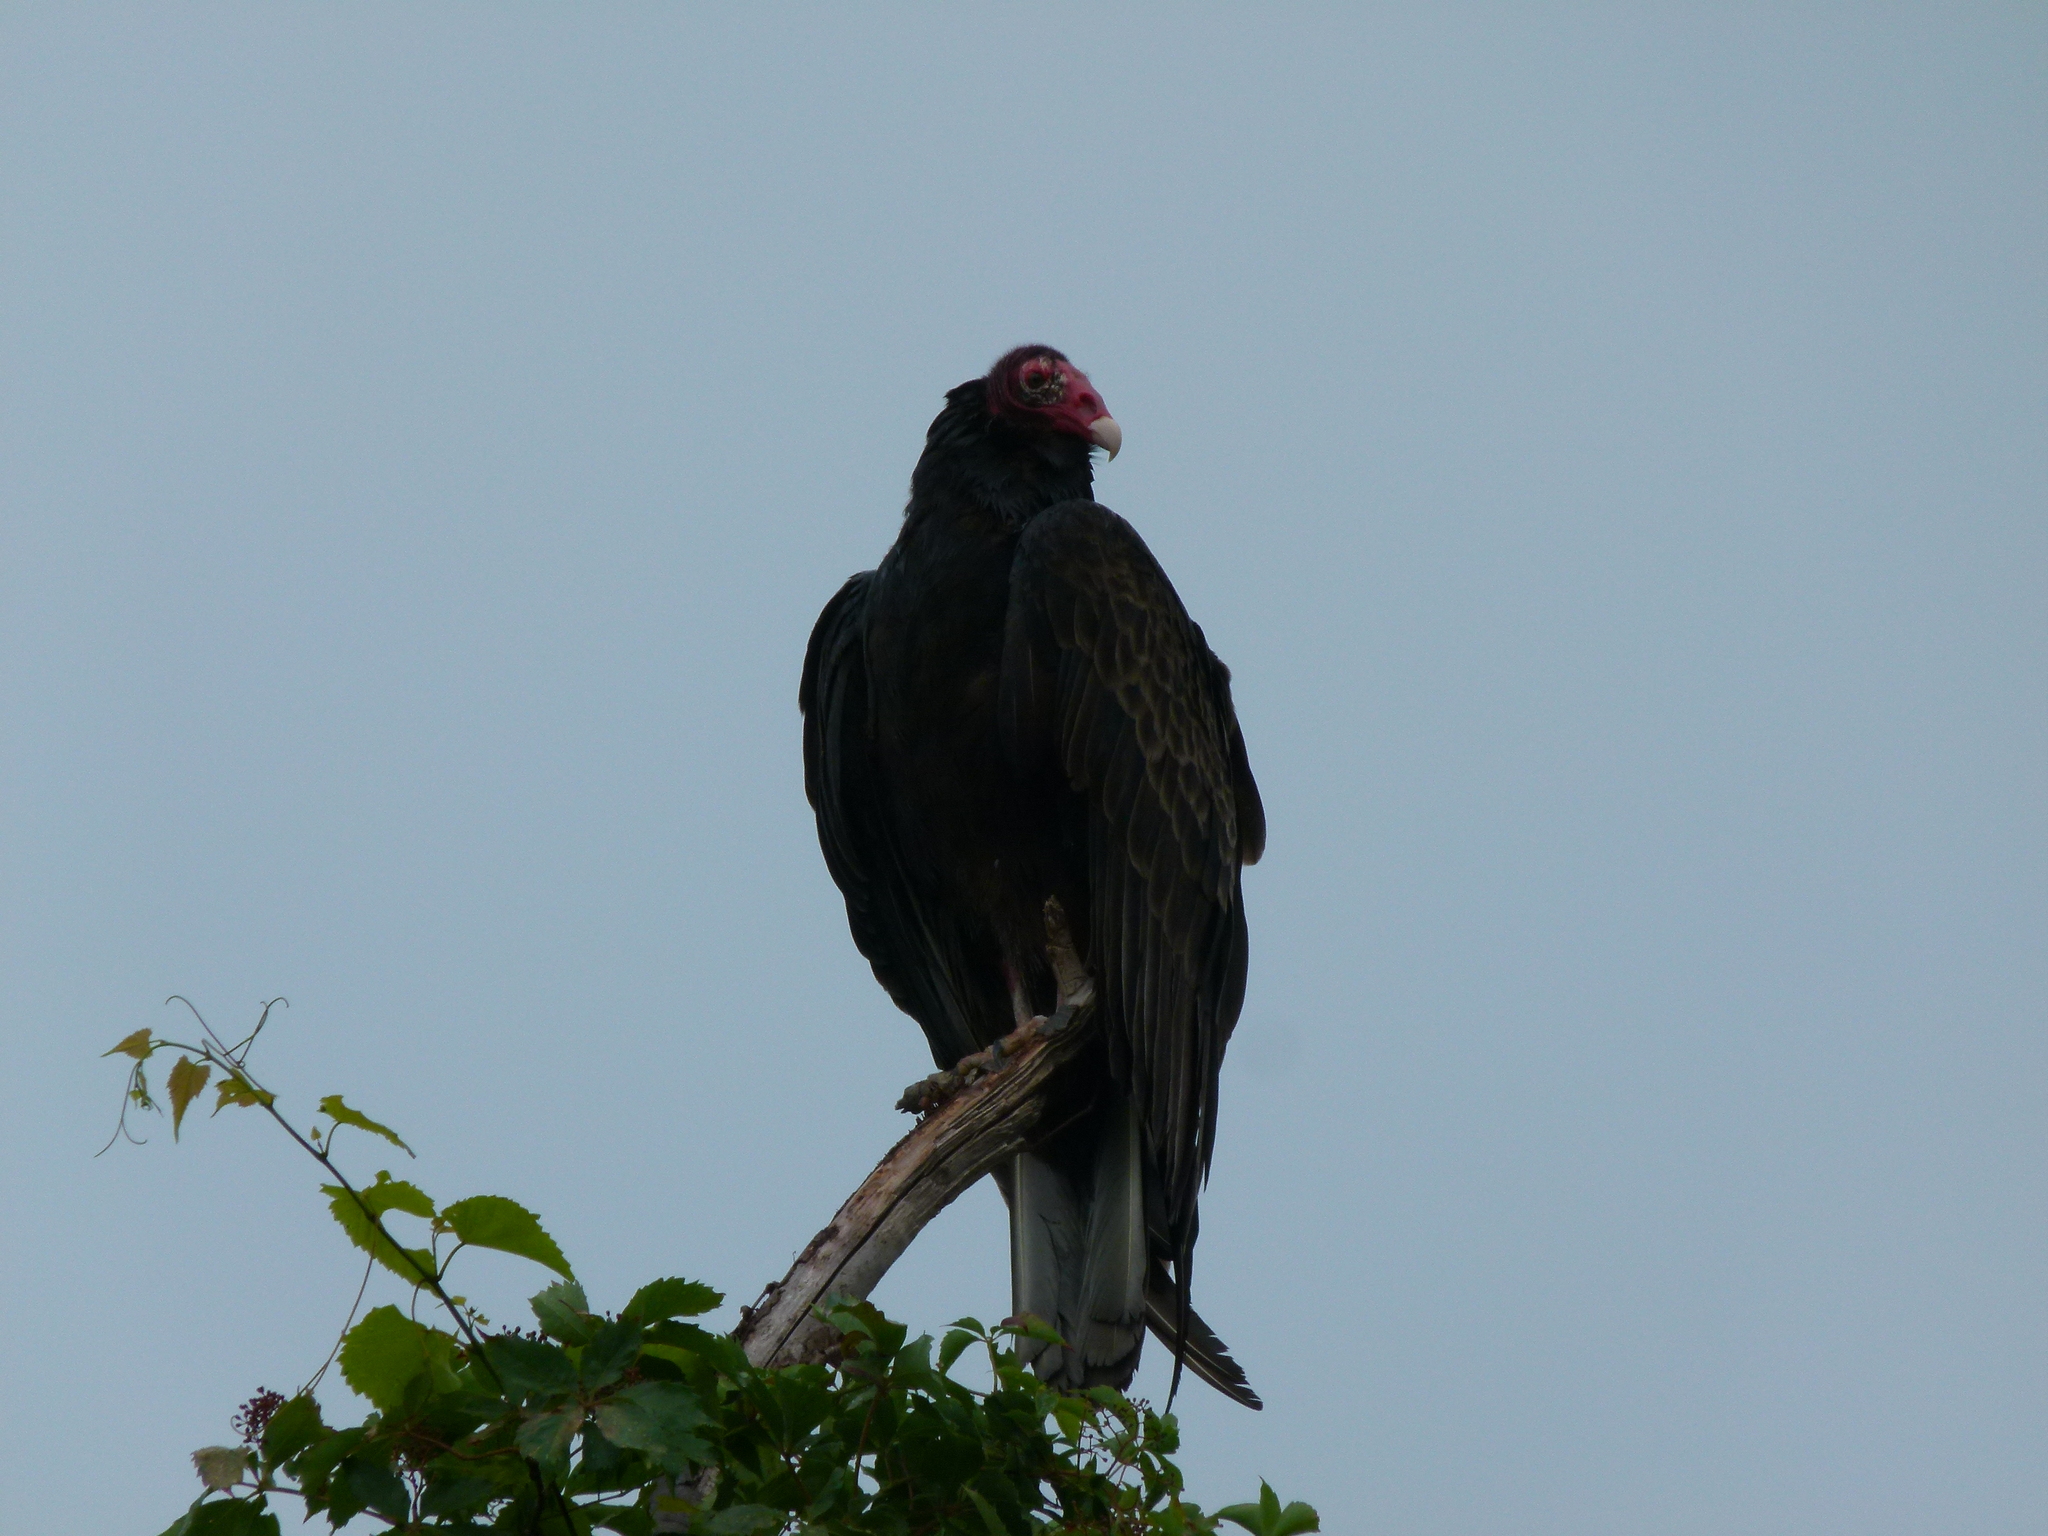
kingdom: Animalia
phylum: Chordata
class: Aves
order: Accipitriformes
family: Cathartidae
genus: Cathartes
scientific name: Cathartes aura
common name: Turkey vulture
